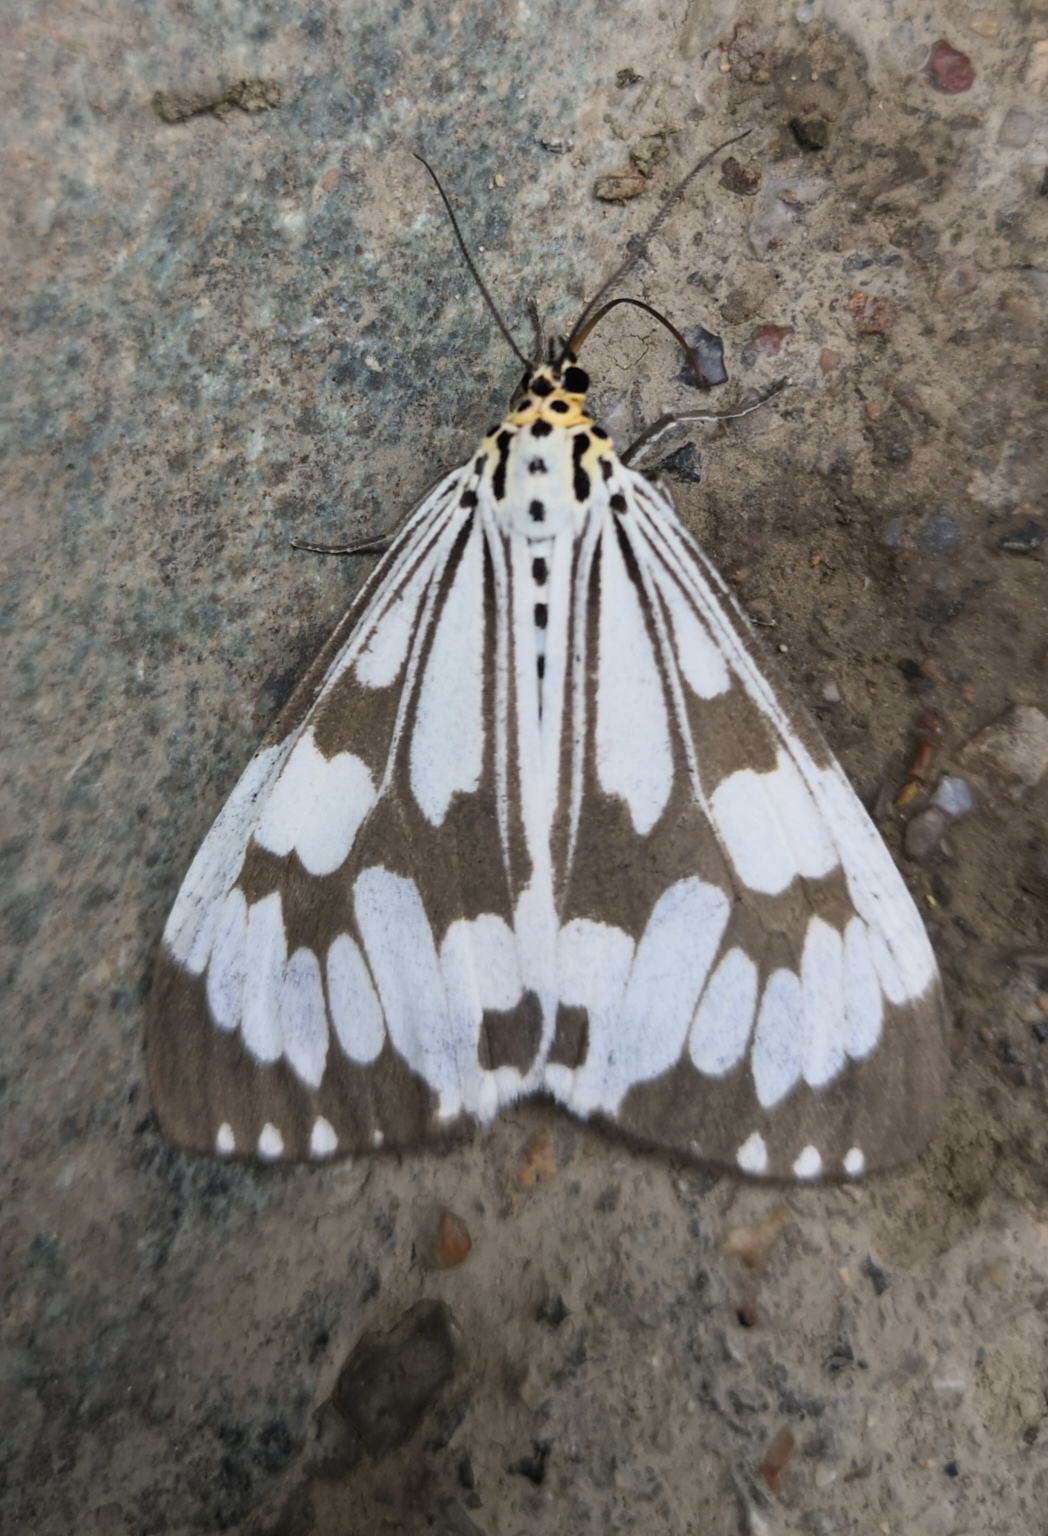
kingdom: Animalia
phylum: Arthropoda
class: Insecta
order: Lepidoptera
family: Erebidae
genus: Nyctemera
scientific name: Nyctemera adversata
